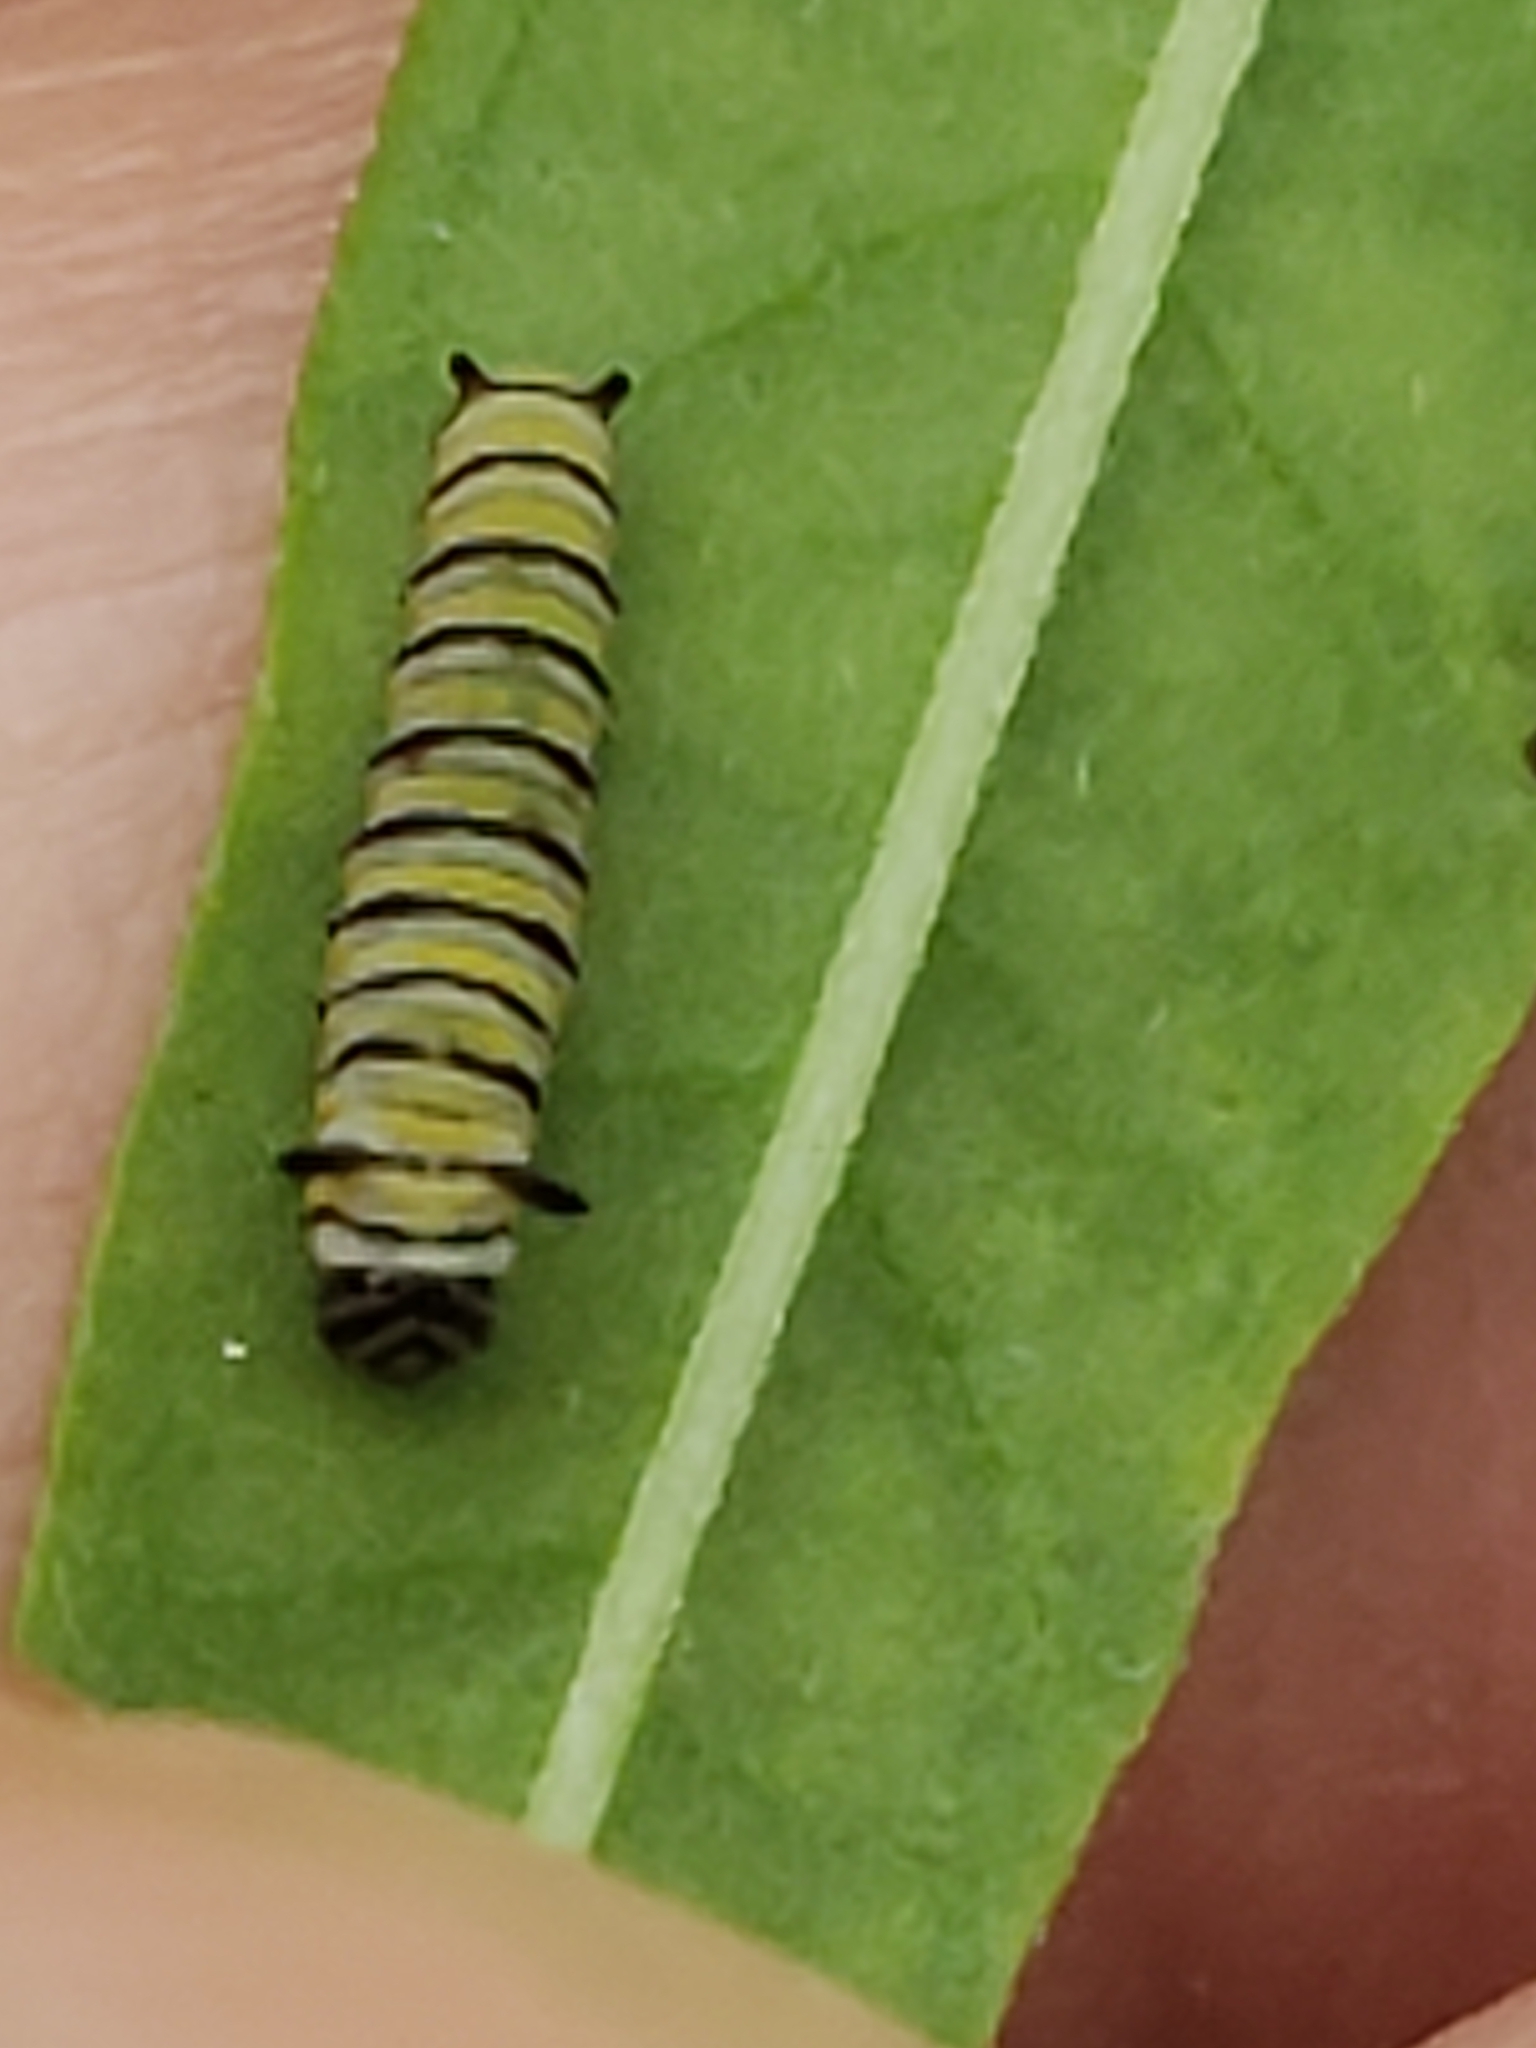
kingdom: Animalia
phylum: Arthropoda
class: Insecta
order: Lepidoptera
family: Nymphalidae
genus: Danaus
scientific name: Danaus plexippus
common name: Monarch
